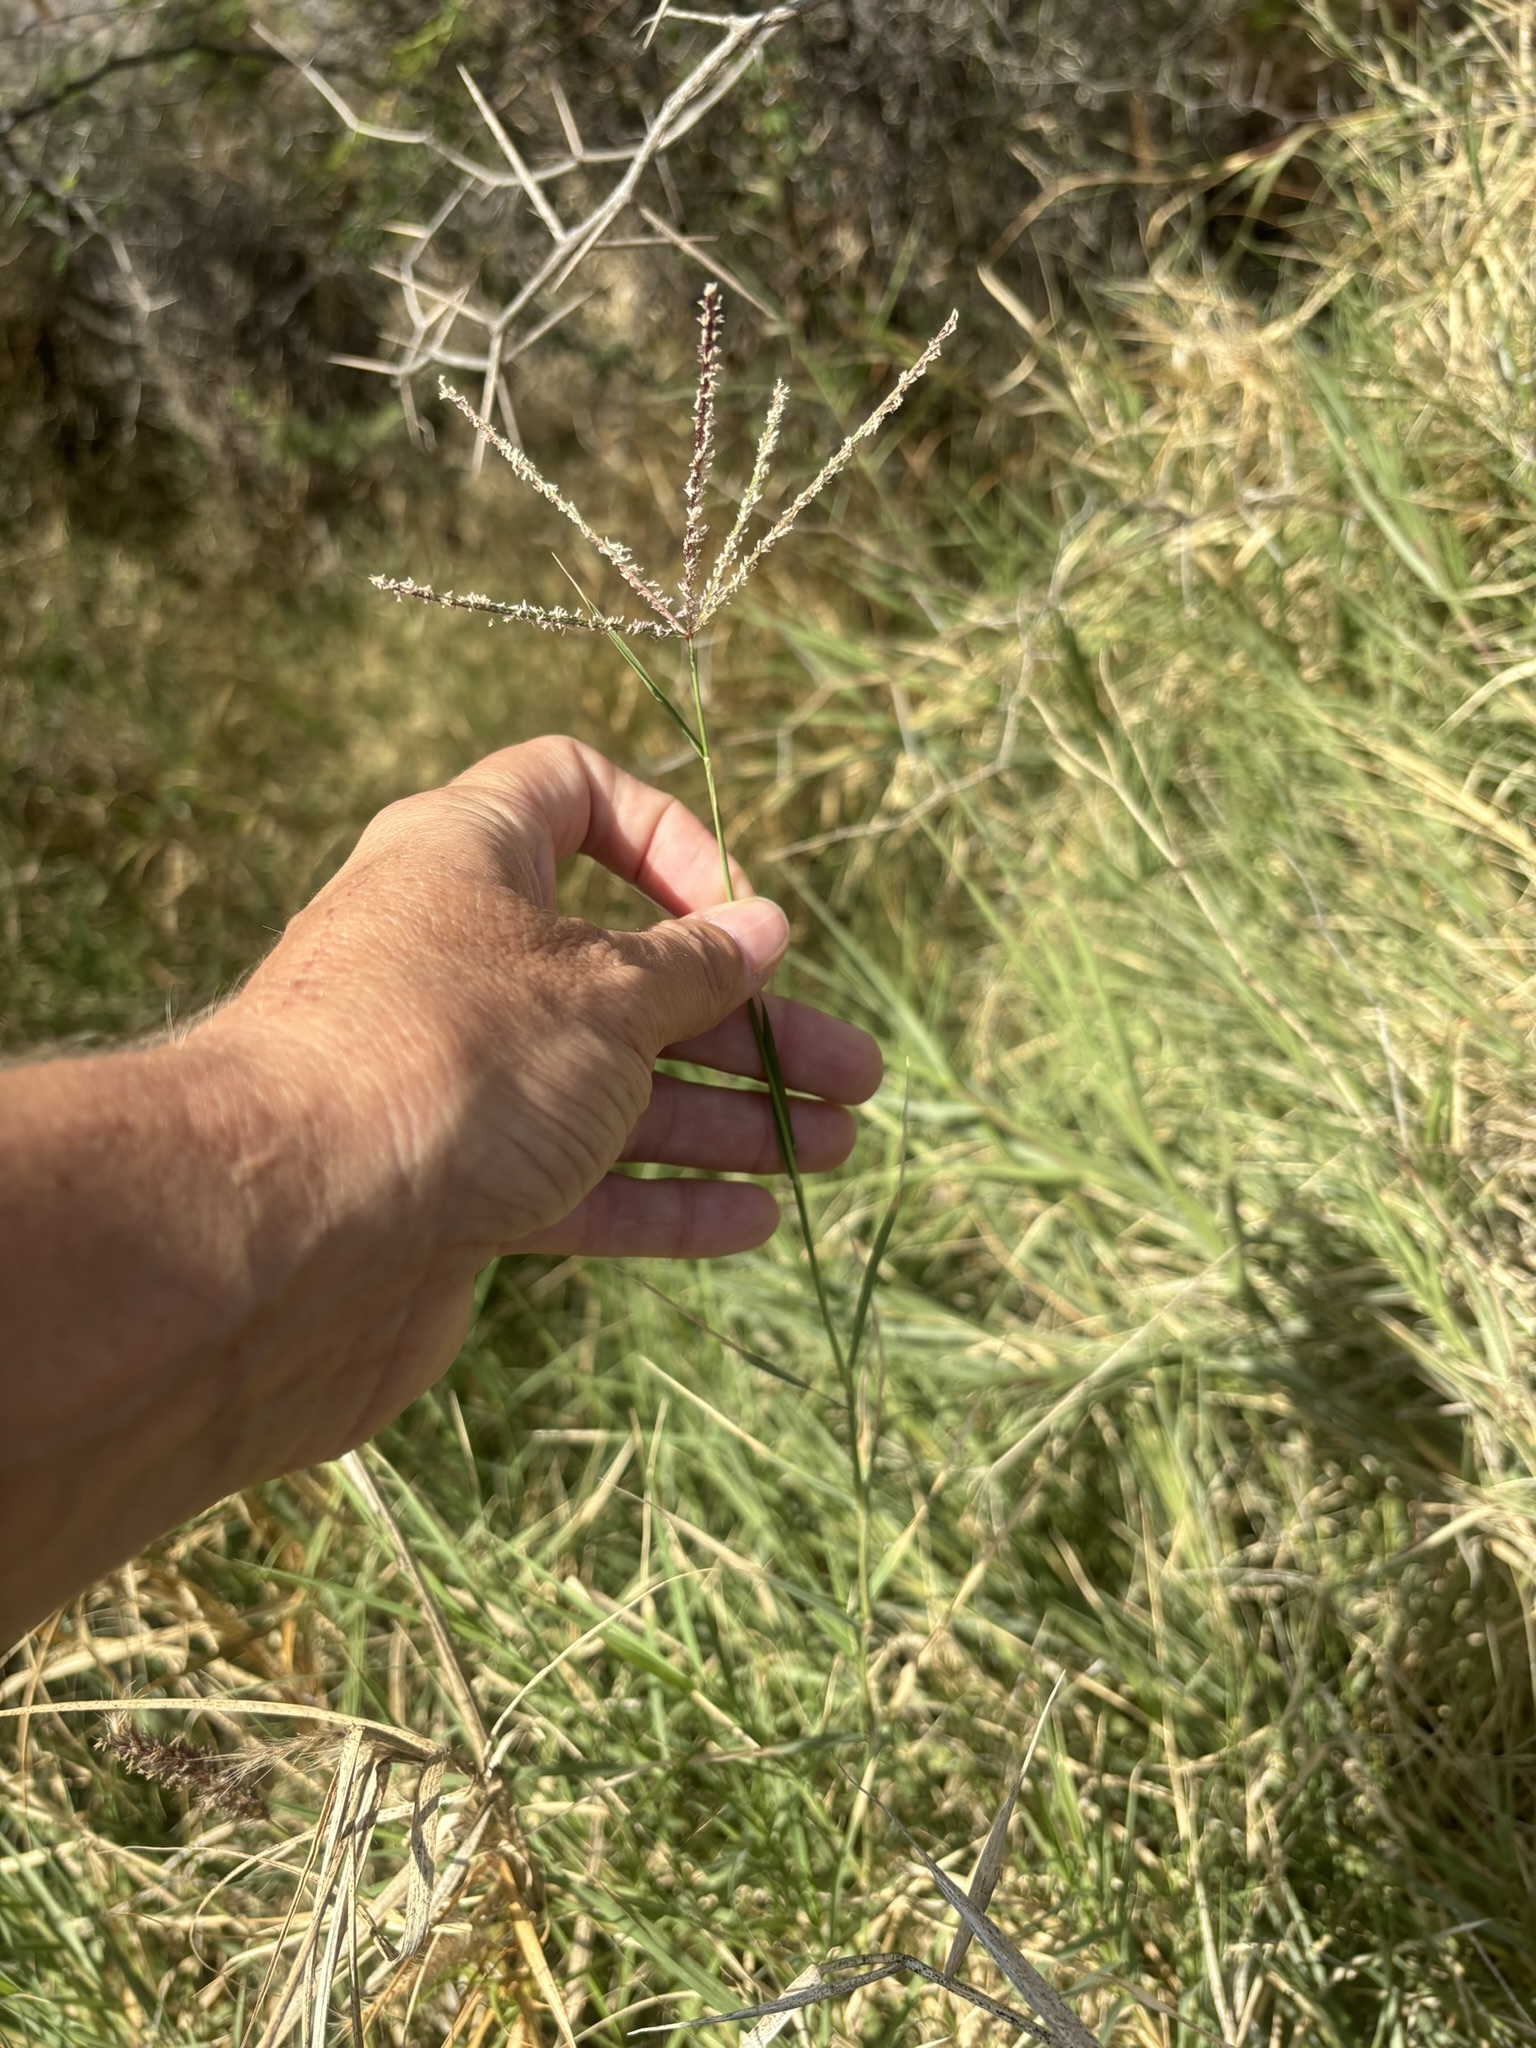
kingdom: Plantae
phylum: Tracheophyta
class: Liliopsida
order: Poales
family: Poaceae
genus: Cynodon
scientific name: Cynodon dactylon
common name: Bermuda grass
